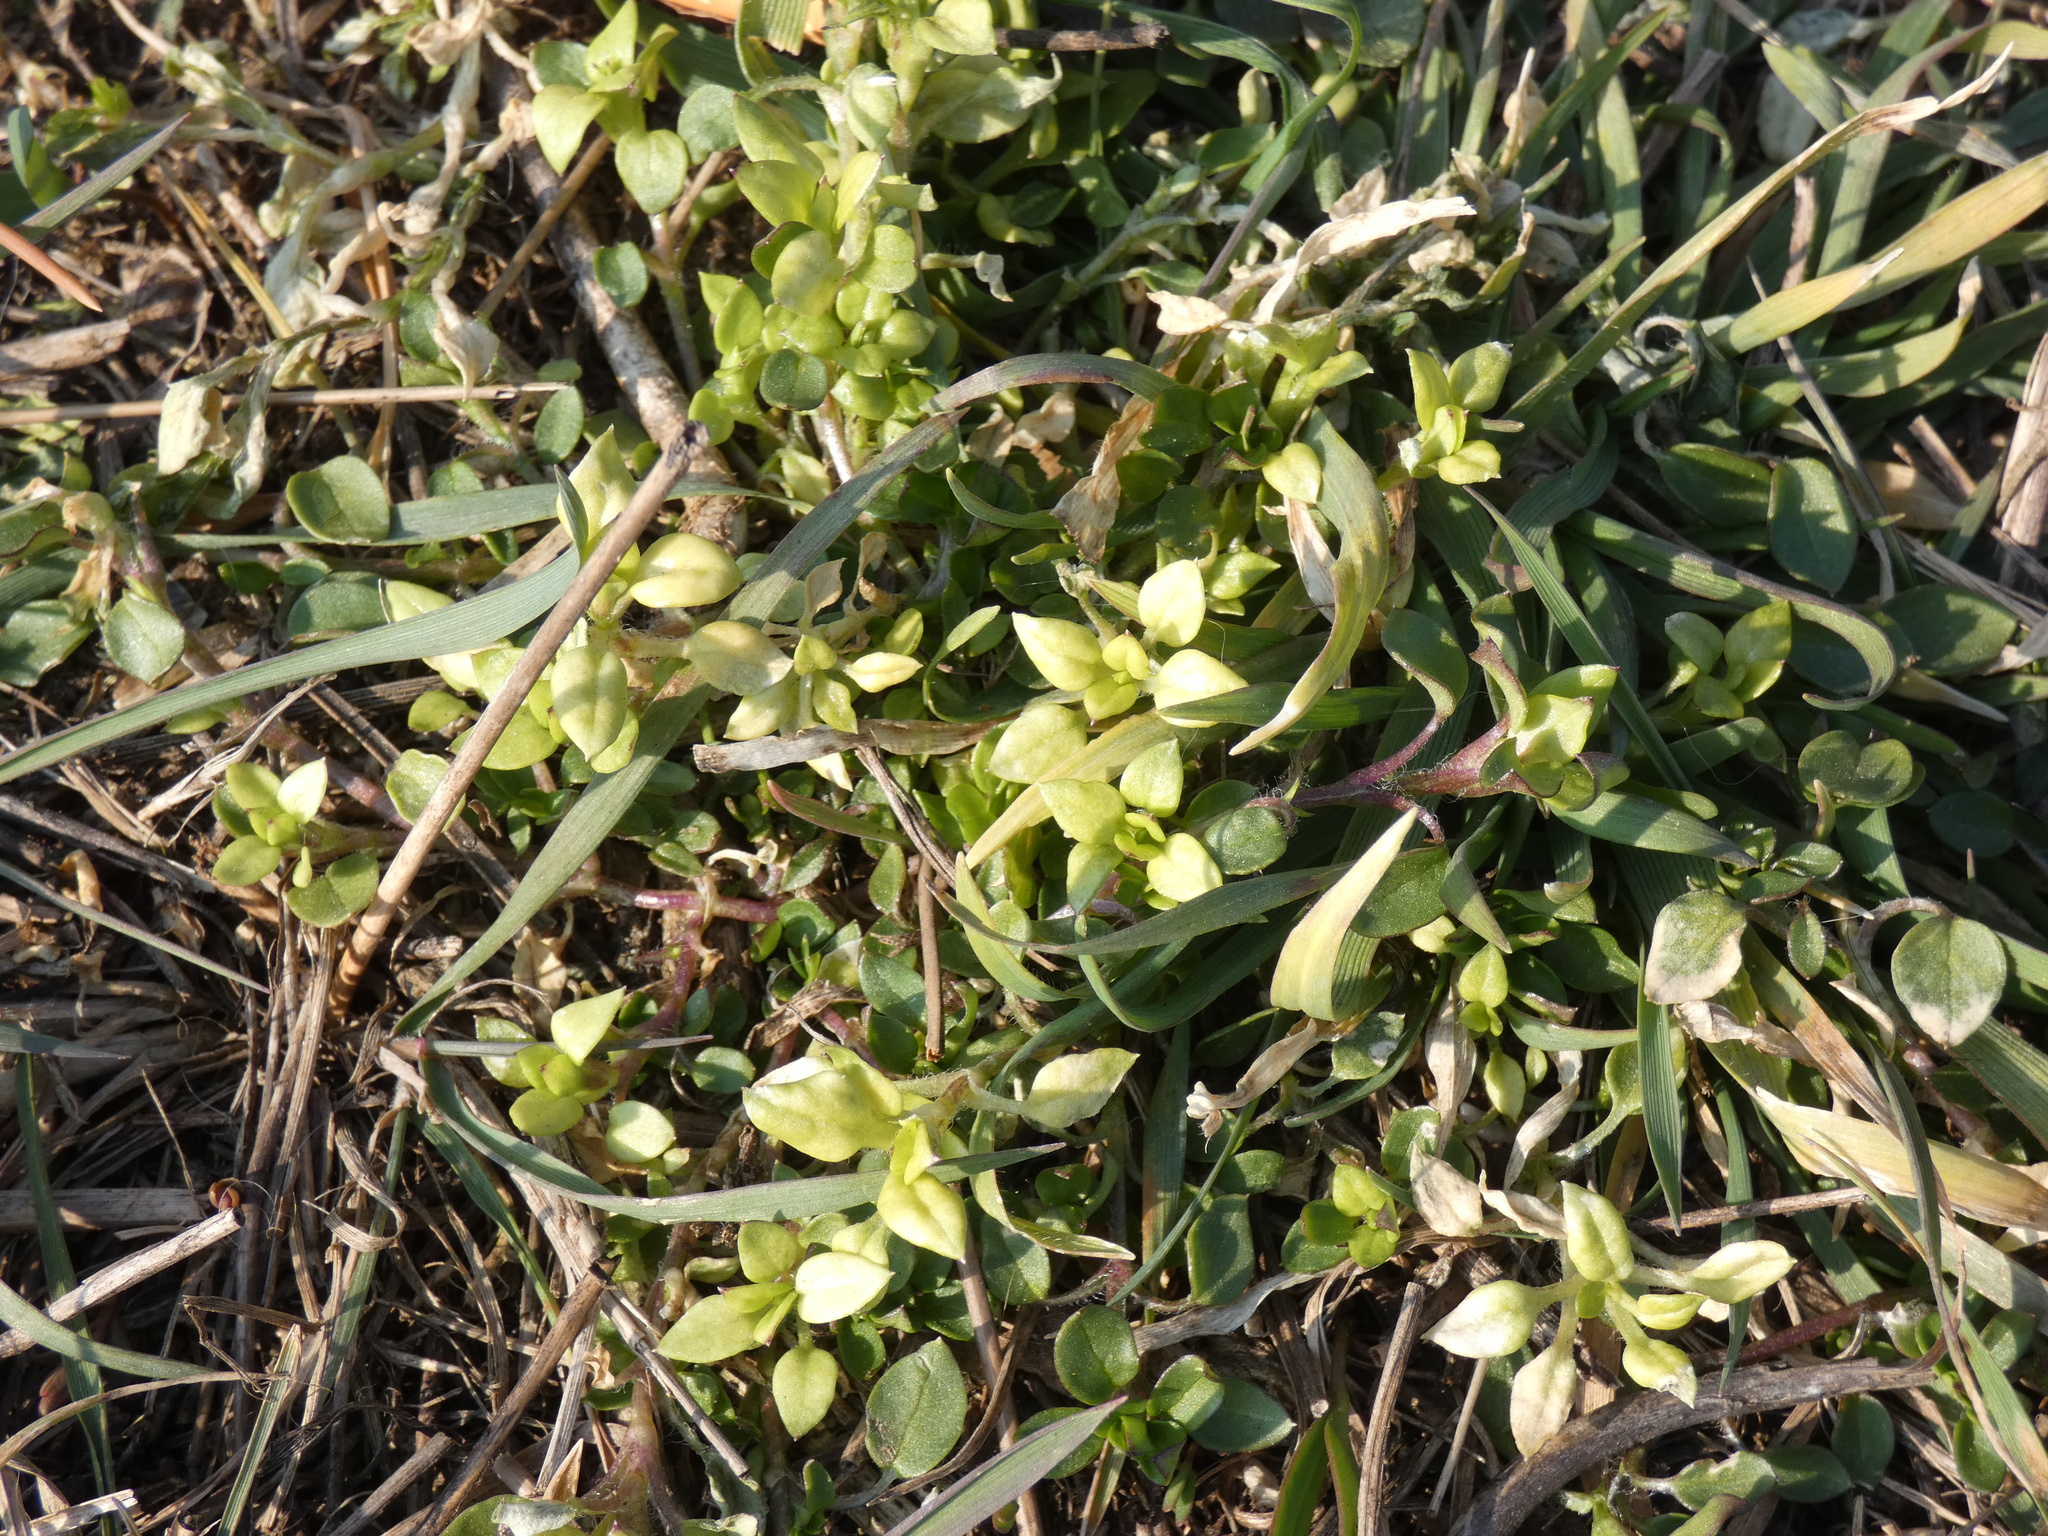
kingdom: Plantae
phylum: Tracheophyta
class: Magnoliopsida
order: Caryophyllales
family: Caryophyllaceae
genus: Stellaria
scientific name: Stellaria
